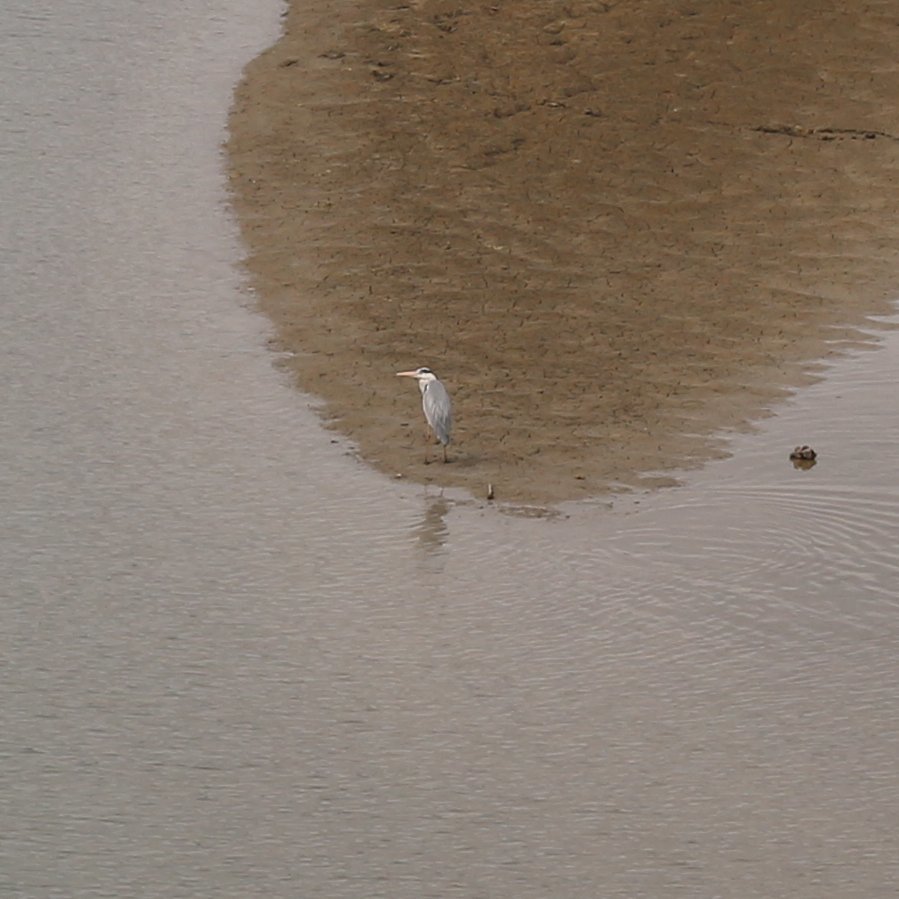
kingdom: Animalia
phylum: Chordata
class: Aves
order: Pelecaniformes
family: Ardeidae
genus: Ardea
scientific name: Ardea cinerea
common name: Grey heron
